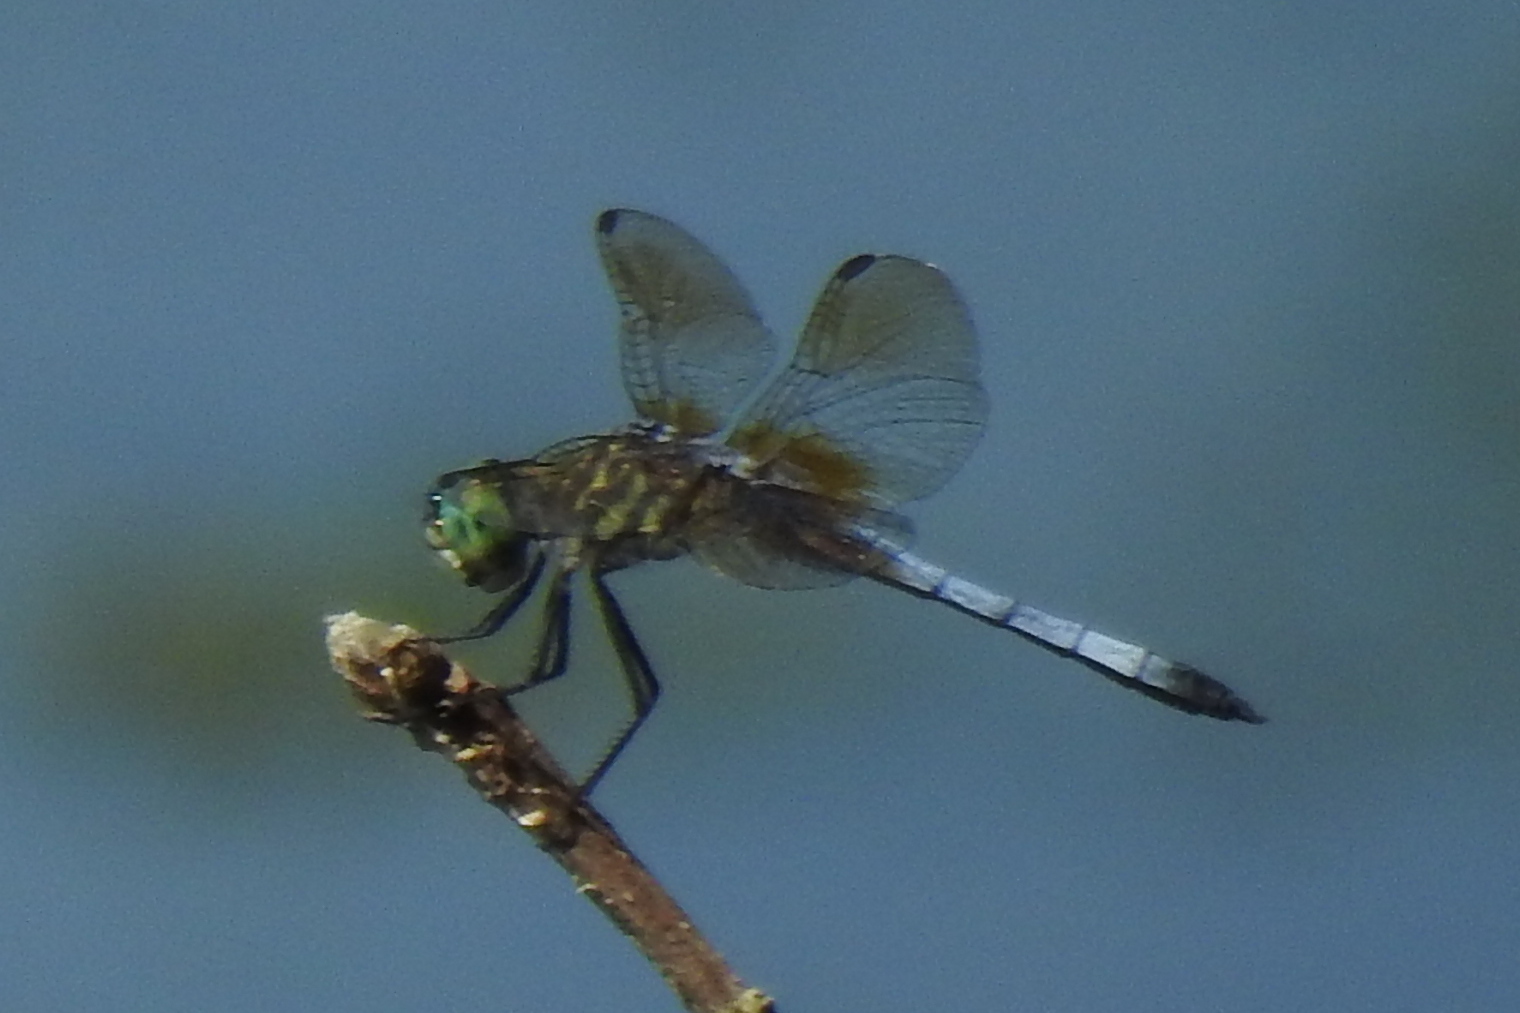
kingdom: Animalia
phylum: Arthropoda
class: Insecta
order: Odonata
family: Libellulidae
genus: Pachydiplax
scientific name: Pachydiplax longipennis
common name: Blue dasher
